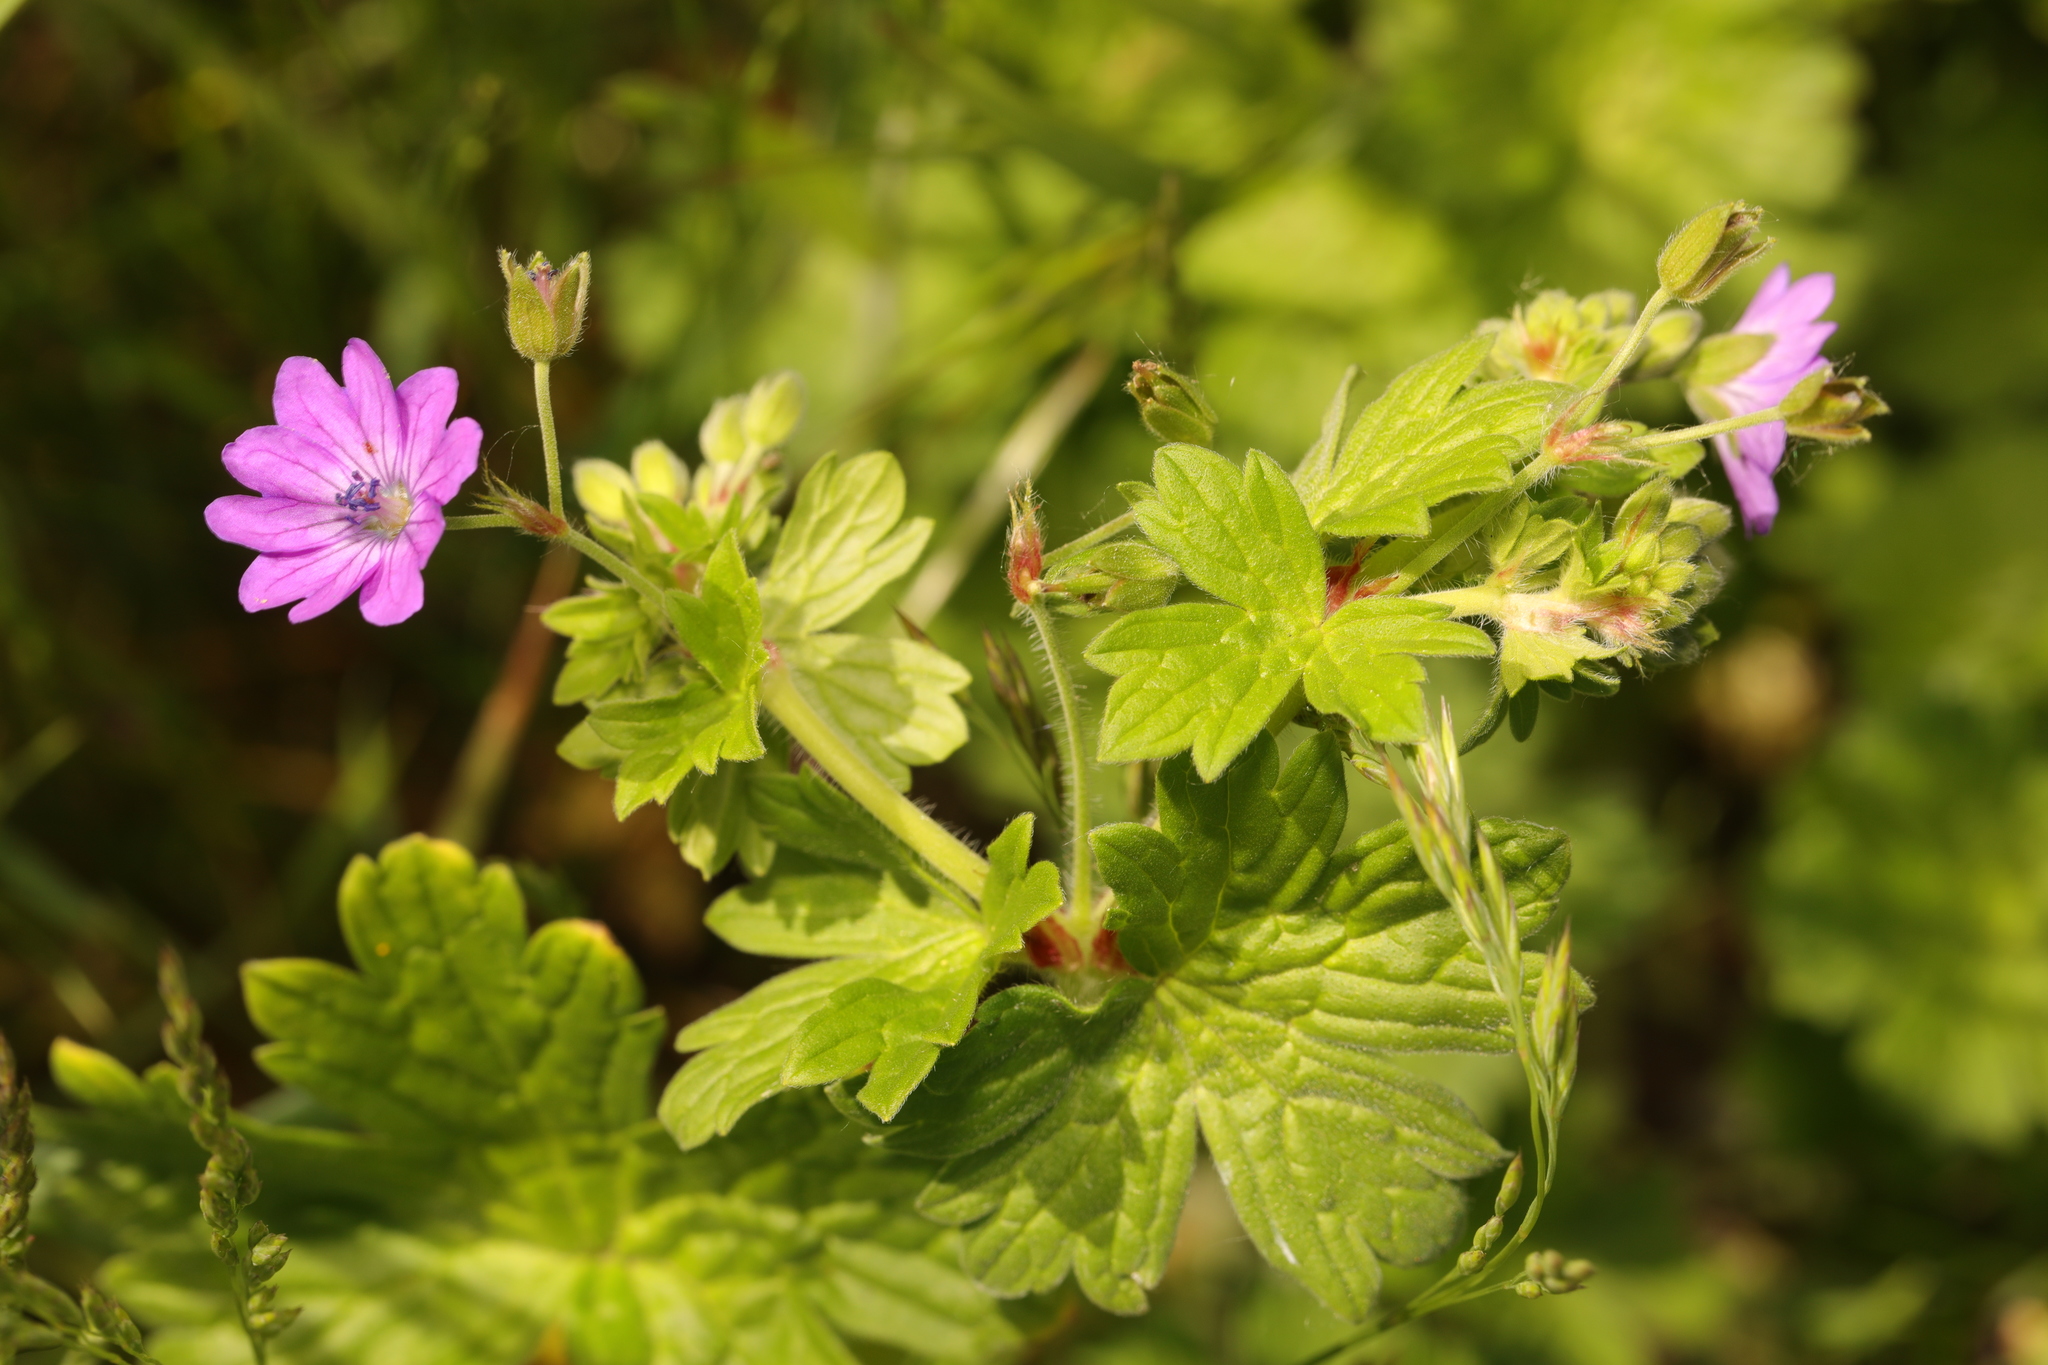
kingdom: Plantae
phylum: Tracheophyta
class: Magnoliopsida
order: Geraniales
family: Geraniaceae
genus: Geranium
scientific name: Geranium pyrenaicum
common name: Hedgerow crane's-bill
